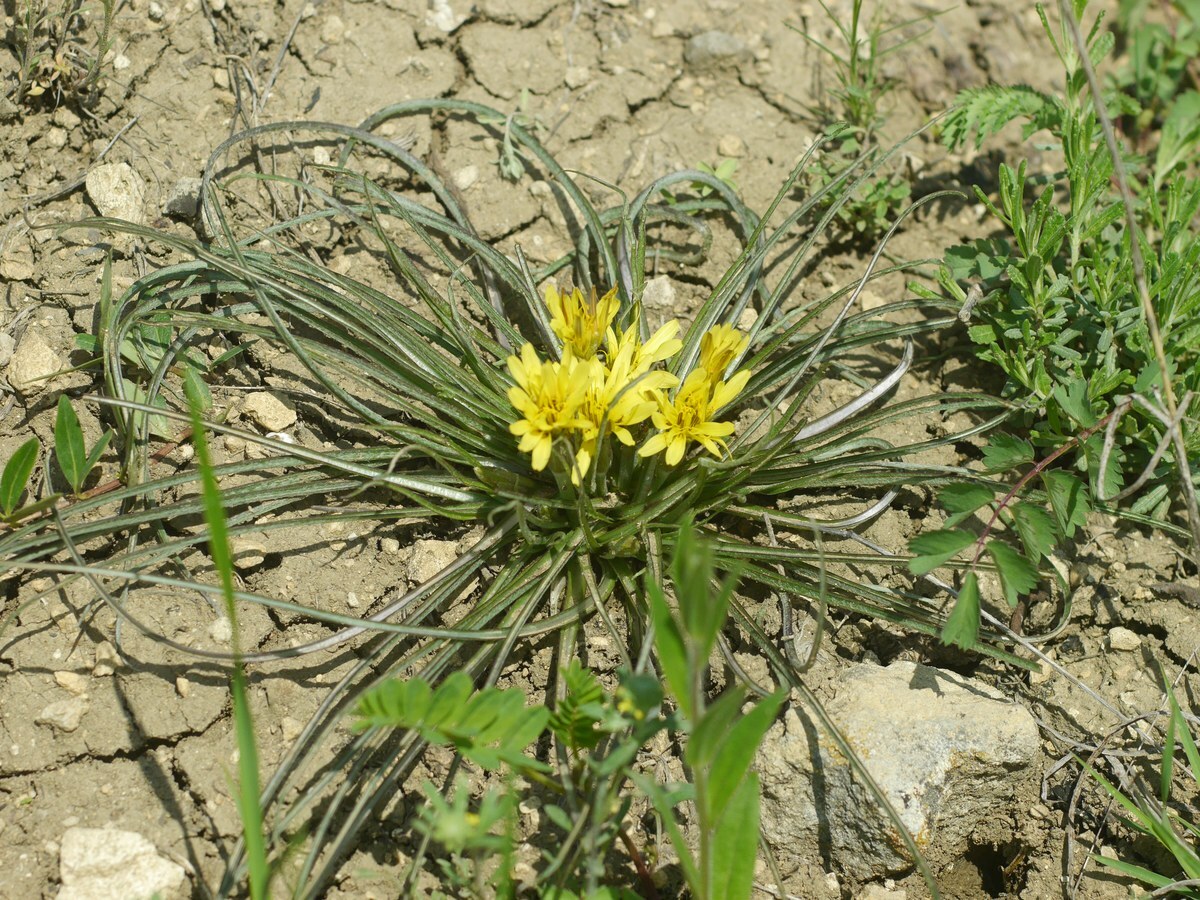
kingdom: Plantae
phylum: Tracheophyta
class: Magnoliopsida
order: Asterales
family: Asteraceae
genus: Candollea
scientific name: Candollea mollis
